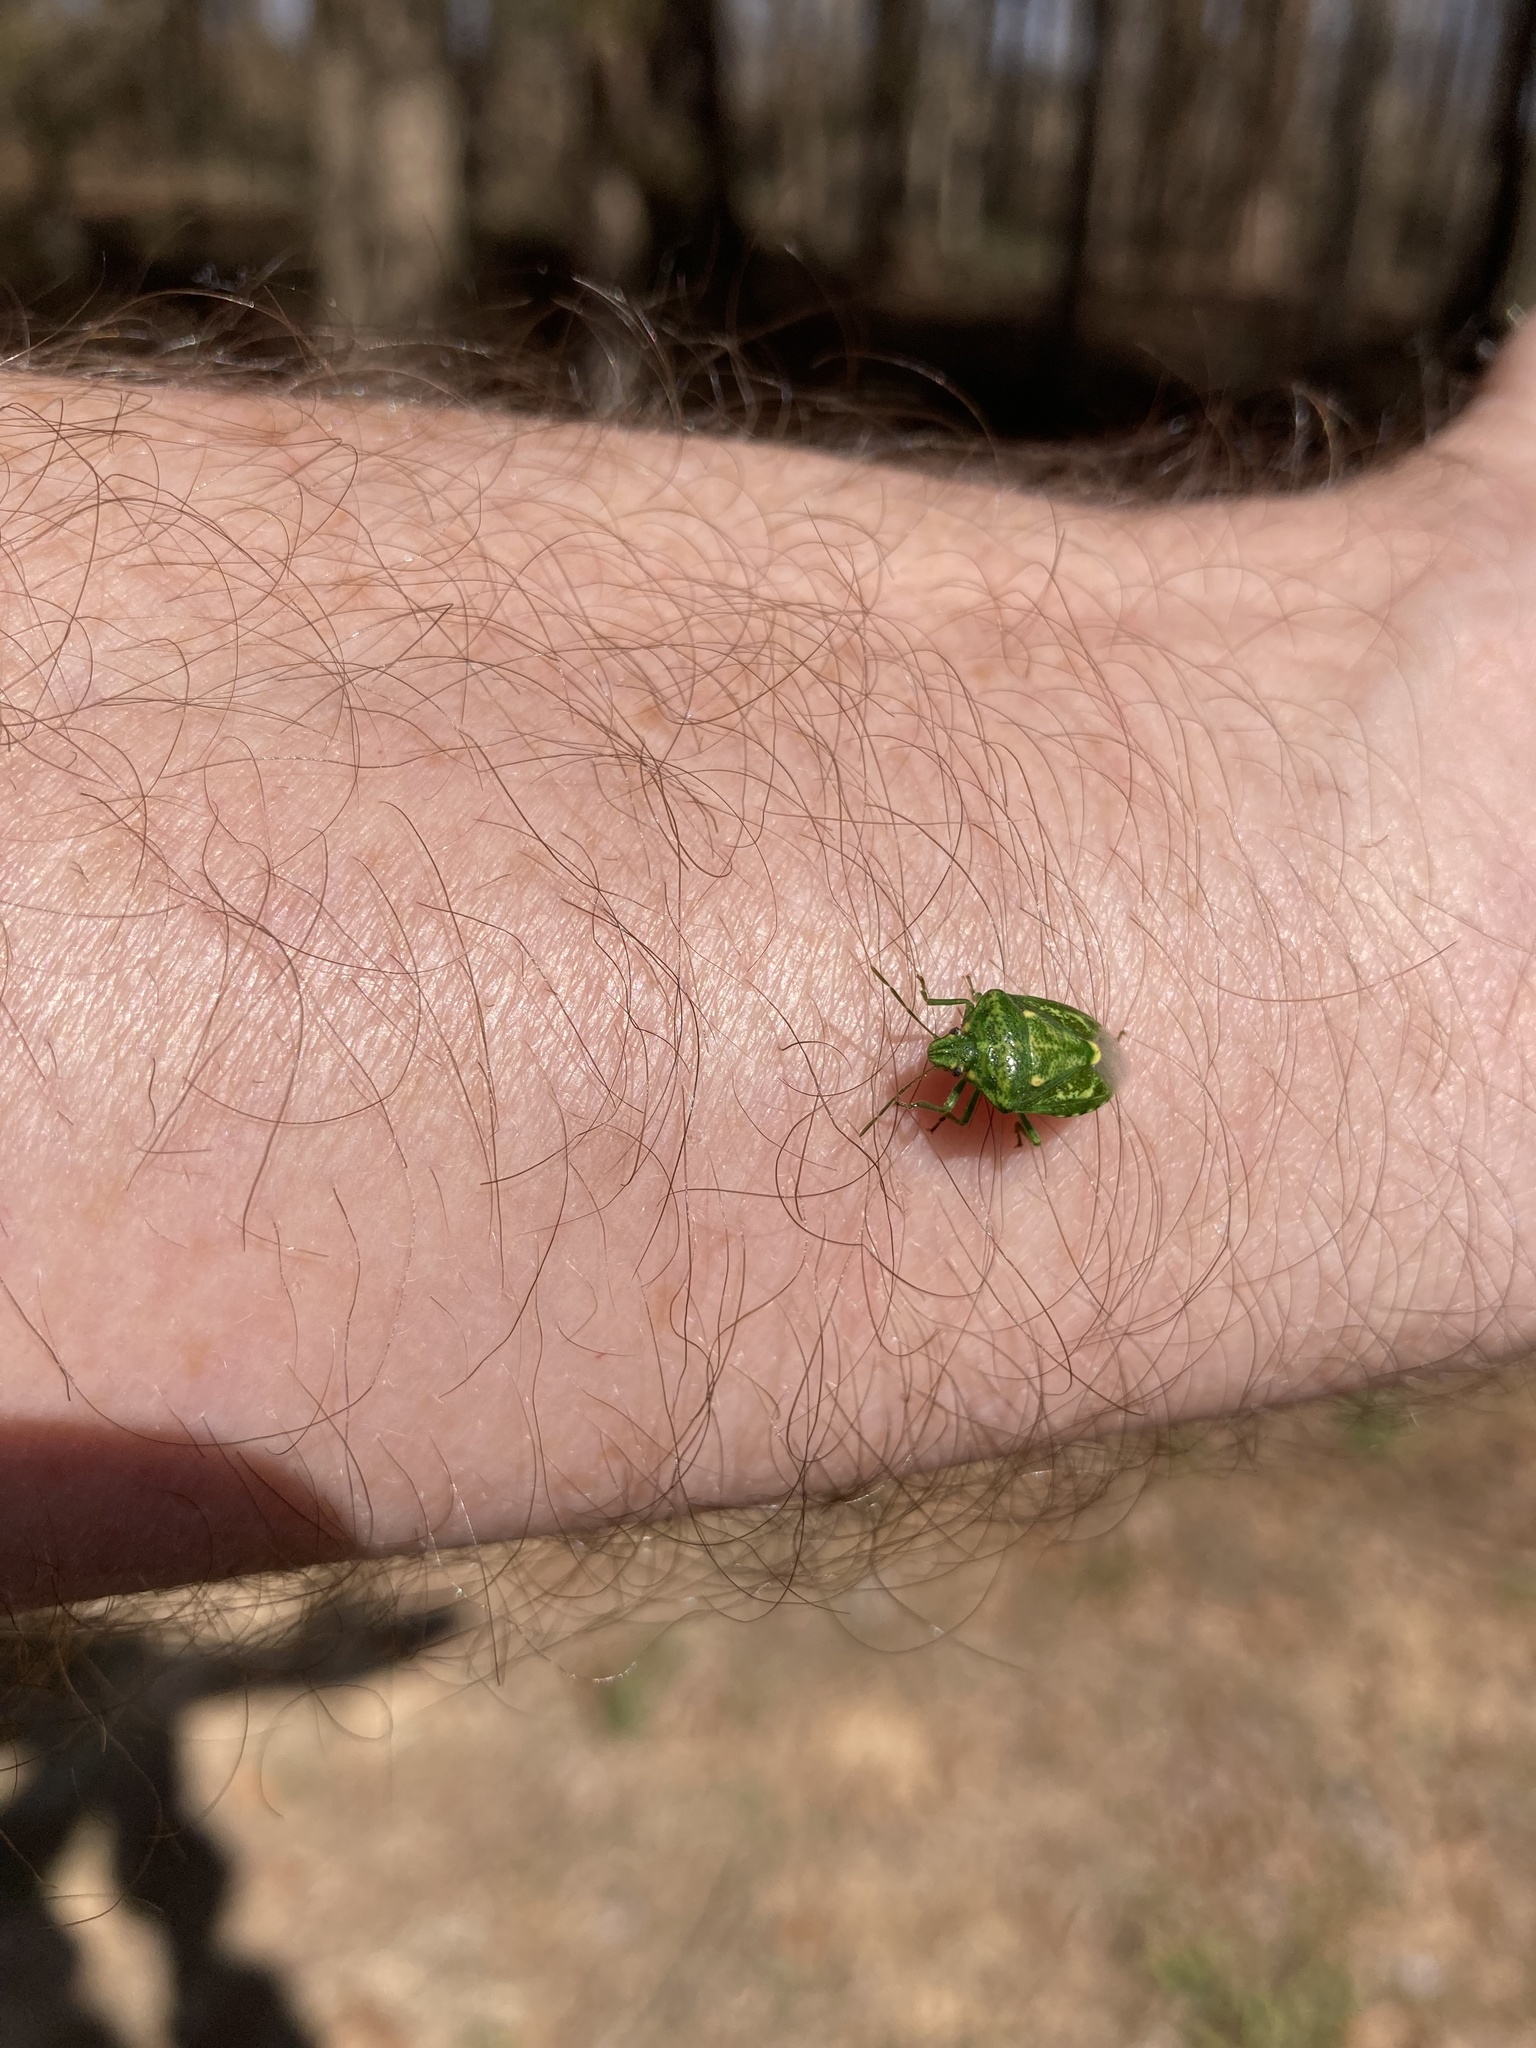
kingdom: Animalia
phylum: Arthropoda
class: Insecta
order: Hemiptera
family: Pentatomidae
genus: Banasa
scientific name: Banasa euchlora
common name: Cedar berry bug
